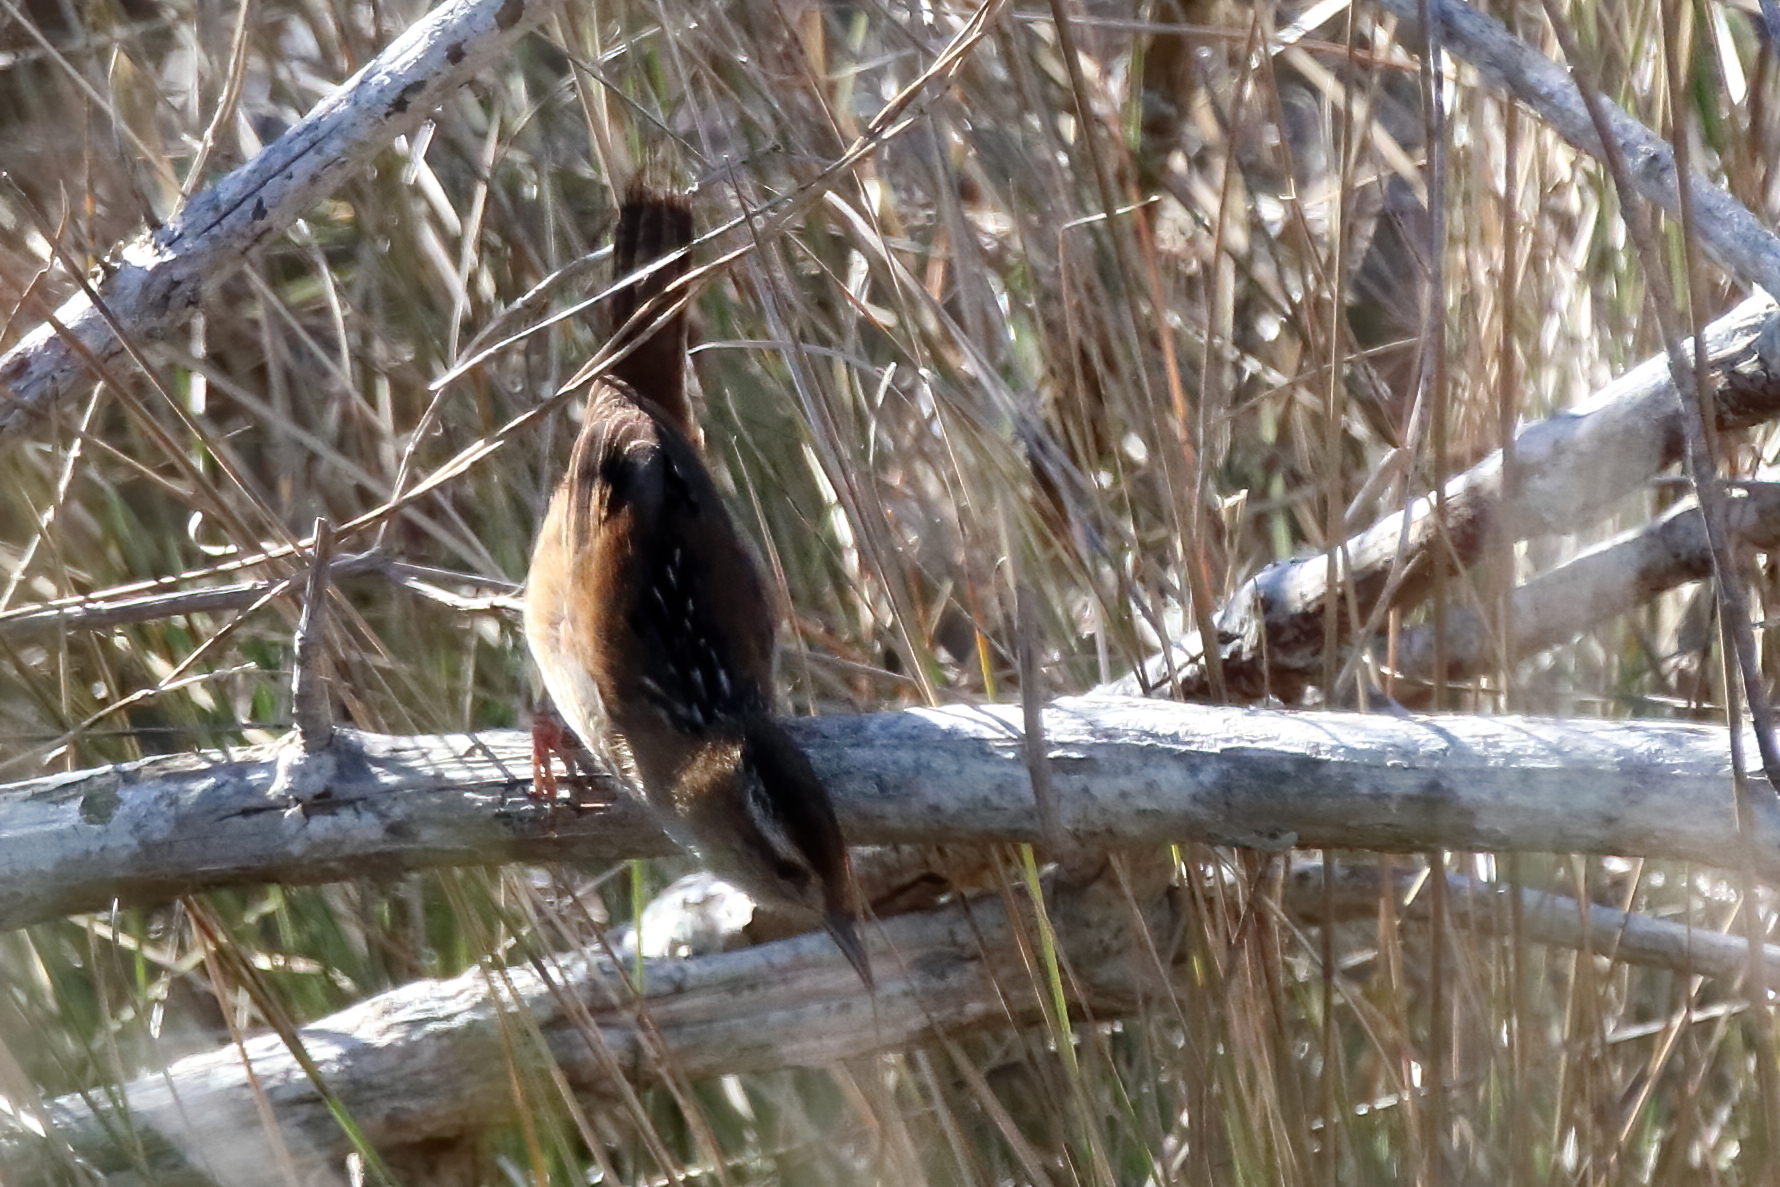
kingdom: Animalia
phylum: Chordata
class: Aves
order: Passeriformes
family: Troglodytidae
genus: Cistothorus
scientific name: Cistothorus palustris
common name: Marsh wren
